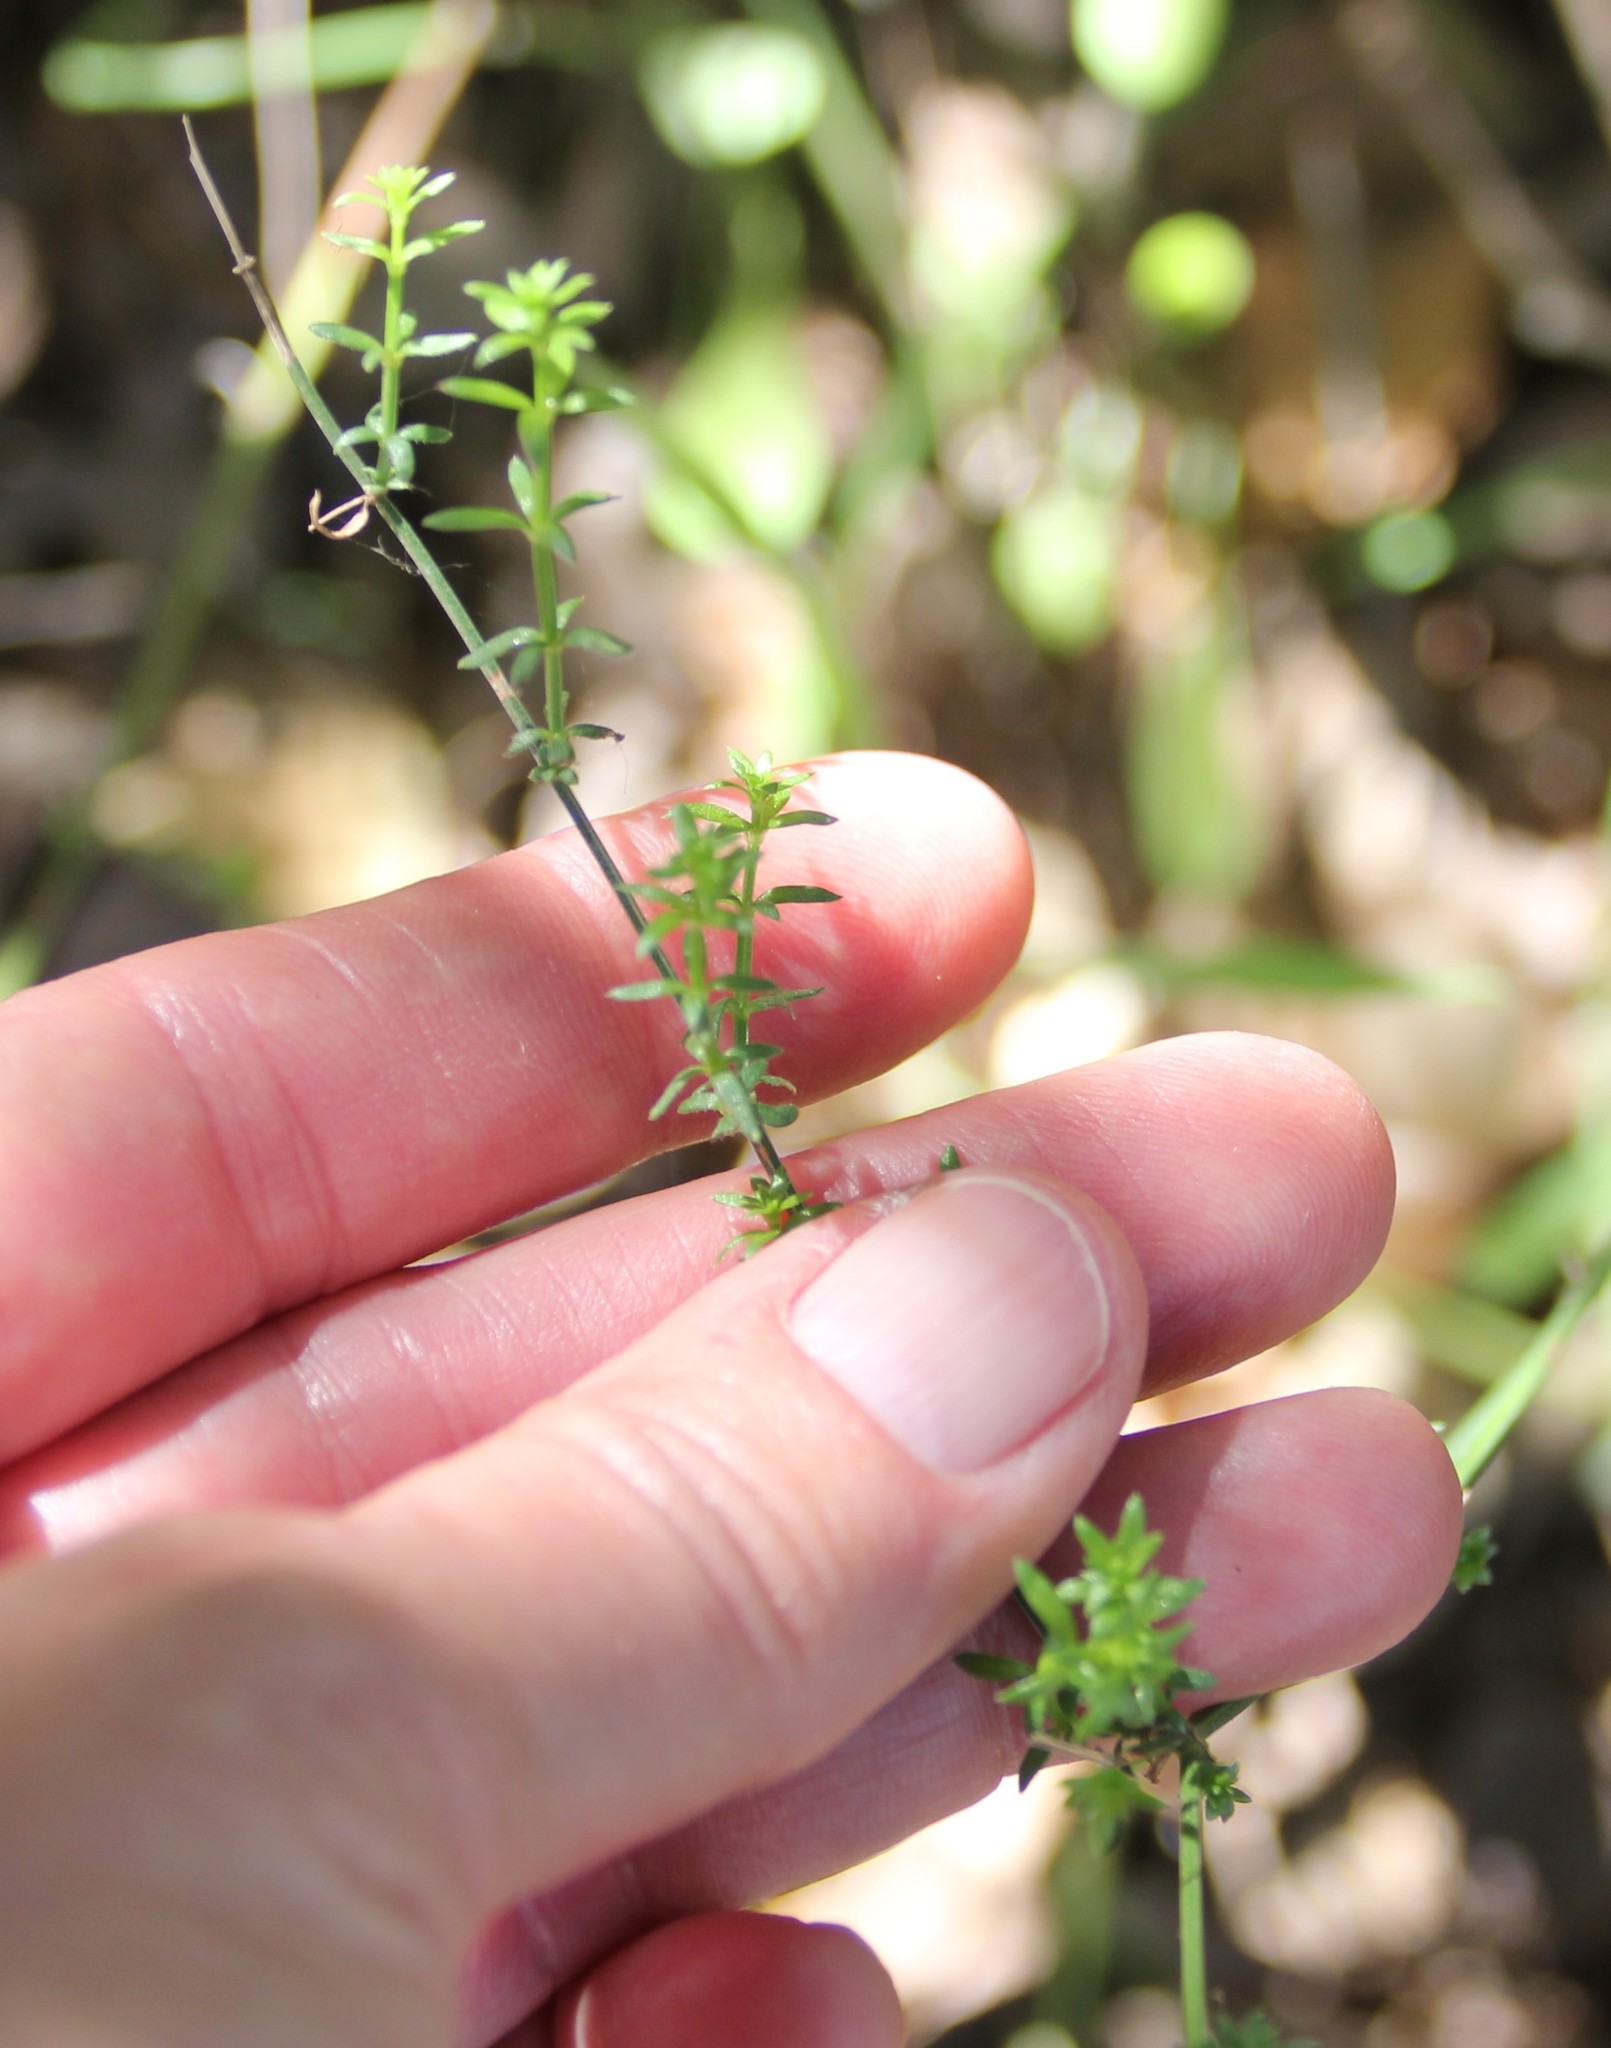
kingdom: Plantae
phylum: Tracheophyta
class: Magnoliopsida
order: Gentianales
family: Rubiaceae
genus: Galium
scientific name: Galium angustifolium
